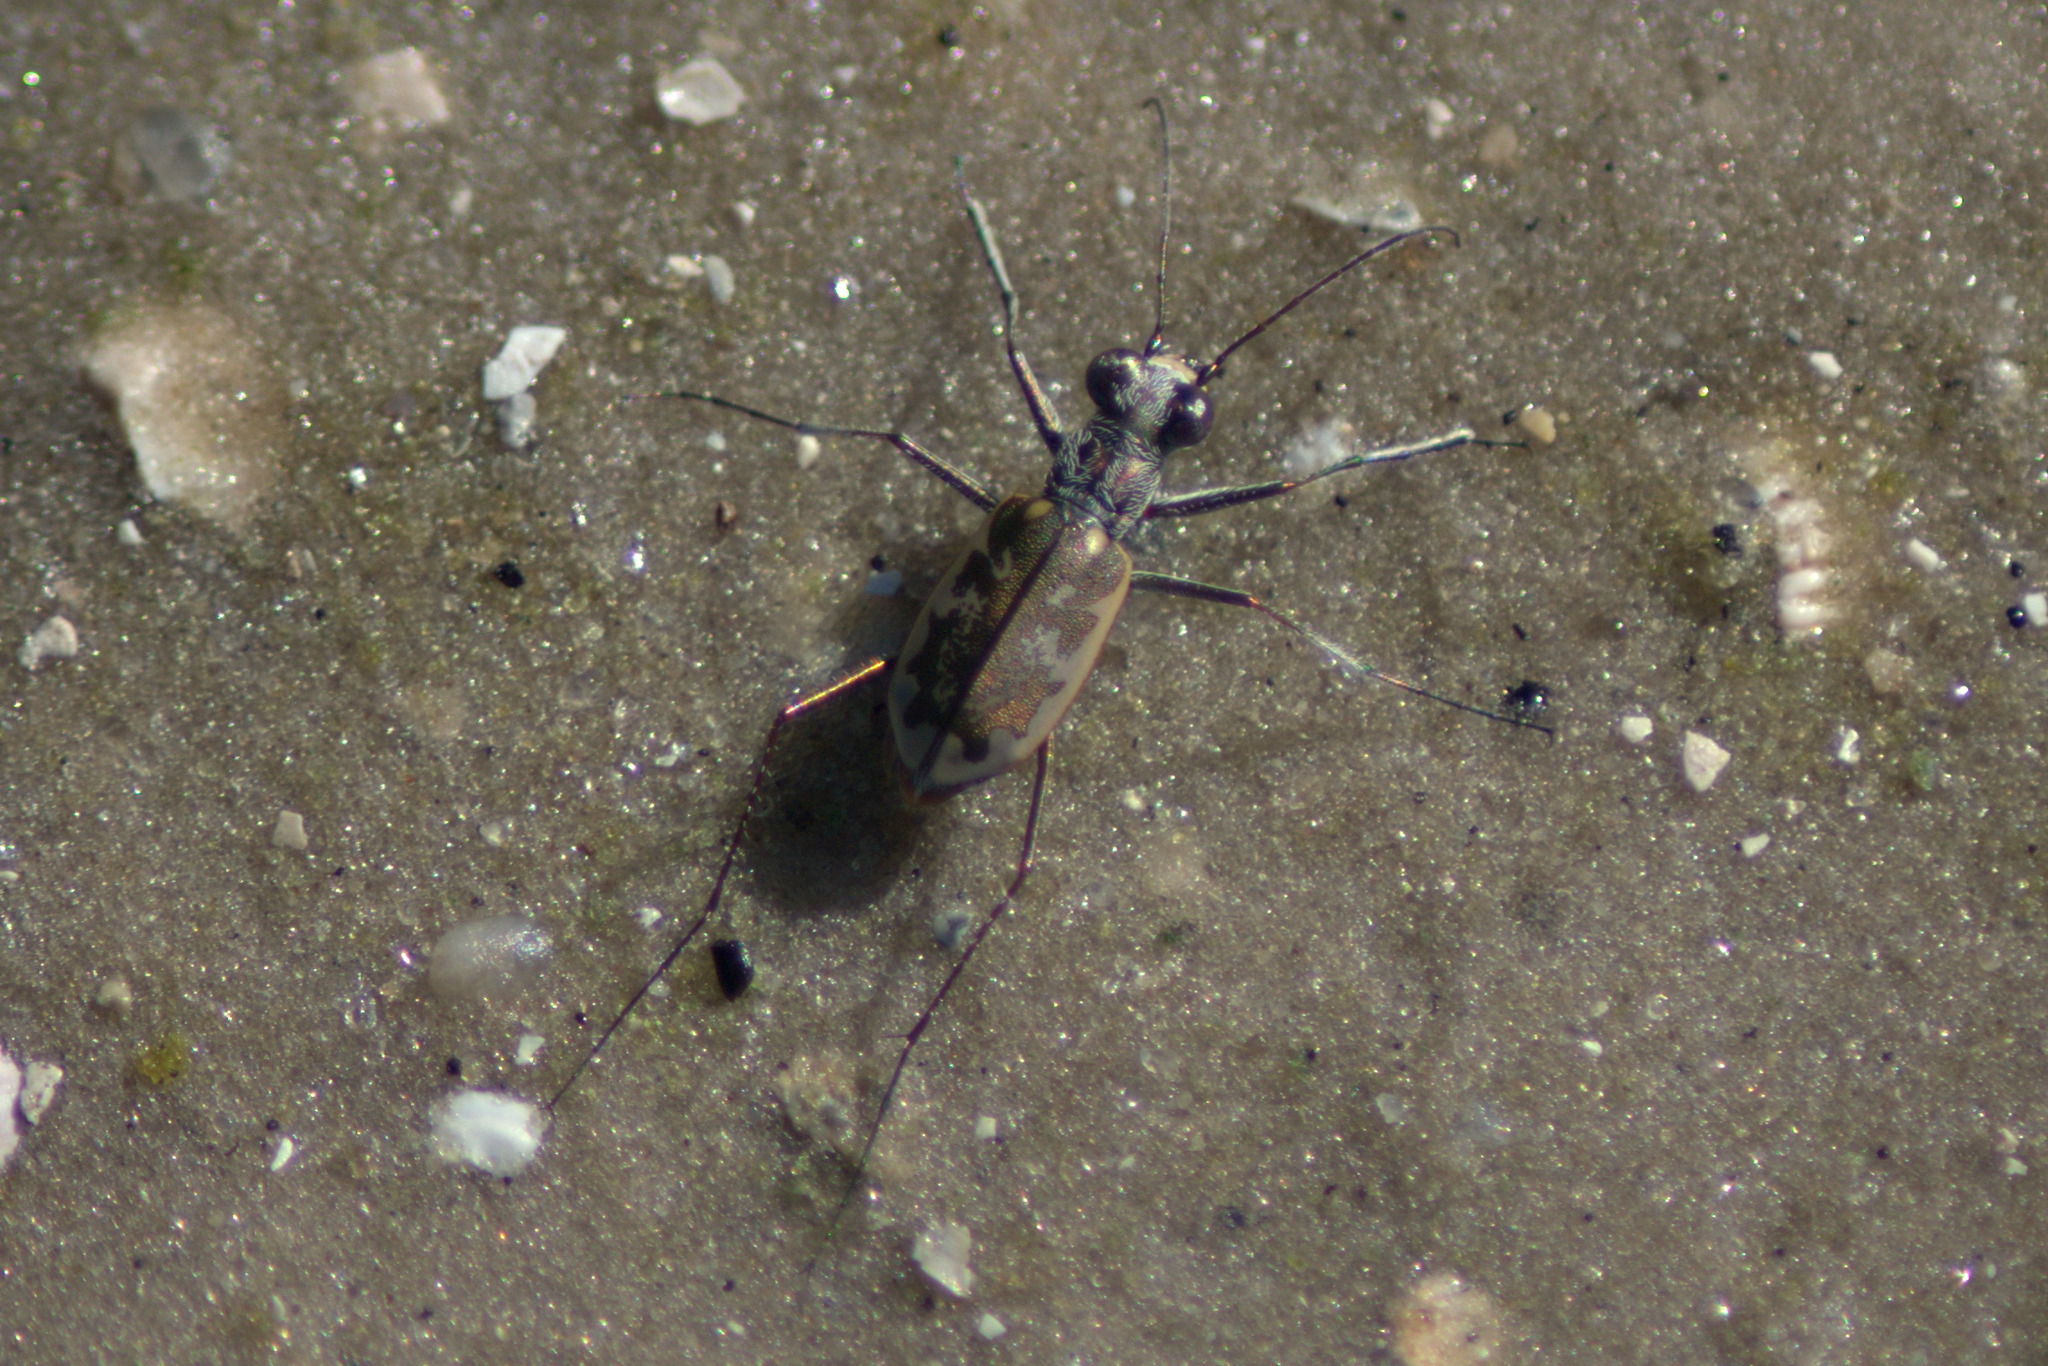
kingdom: Animalia
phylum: Arthropoda
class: Insecta
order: Coleoptera
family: Carabidae
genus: Ellipsoptera
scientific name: Ellipsoptera
